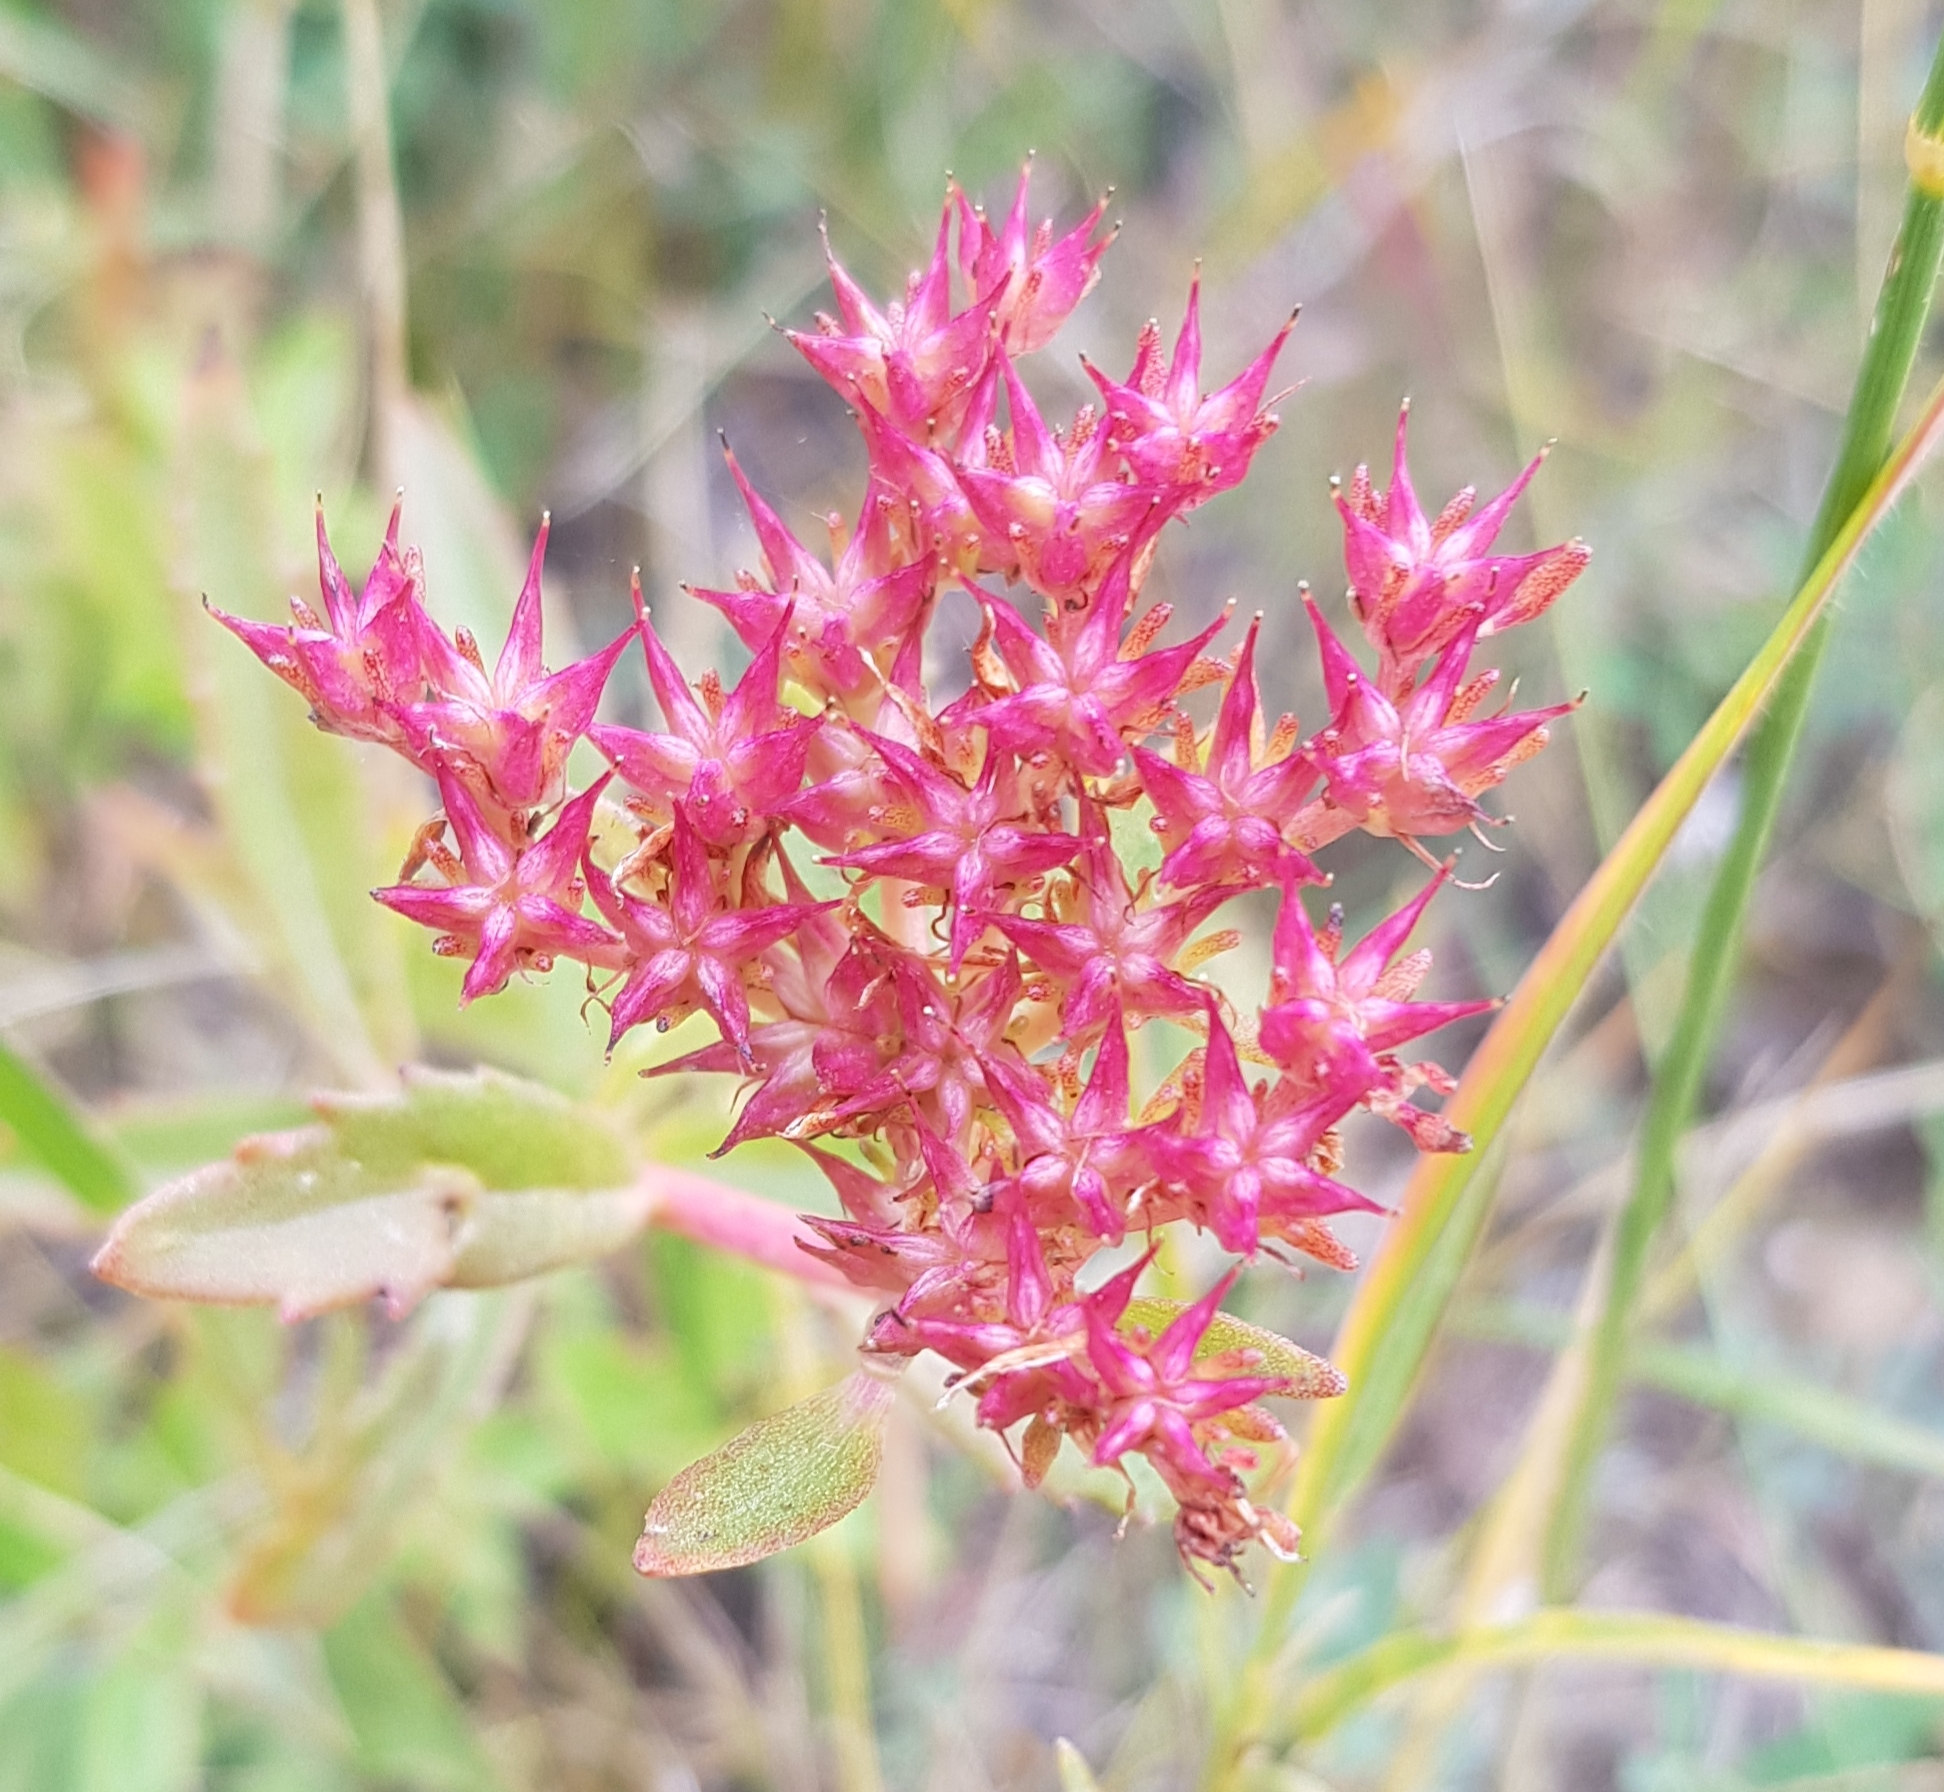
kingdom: Plantae
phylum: Tracheophyta
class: Magnoliopsida
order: Saxifragales
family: Crassulaceae
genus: Phedimus
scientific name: Phedimus aizoon
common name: Orpin aizoon
